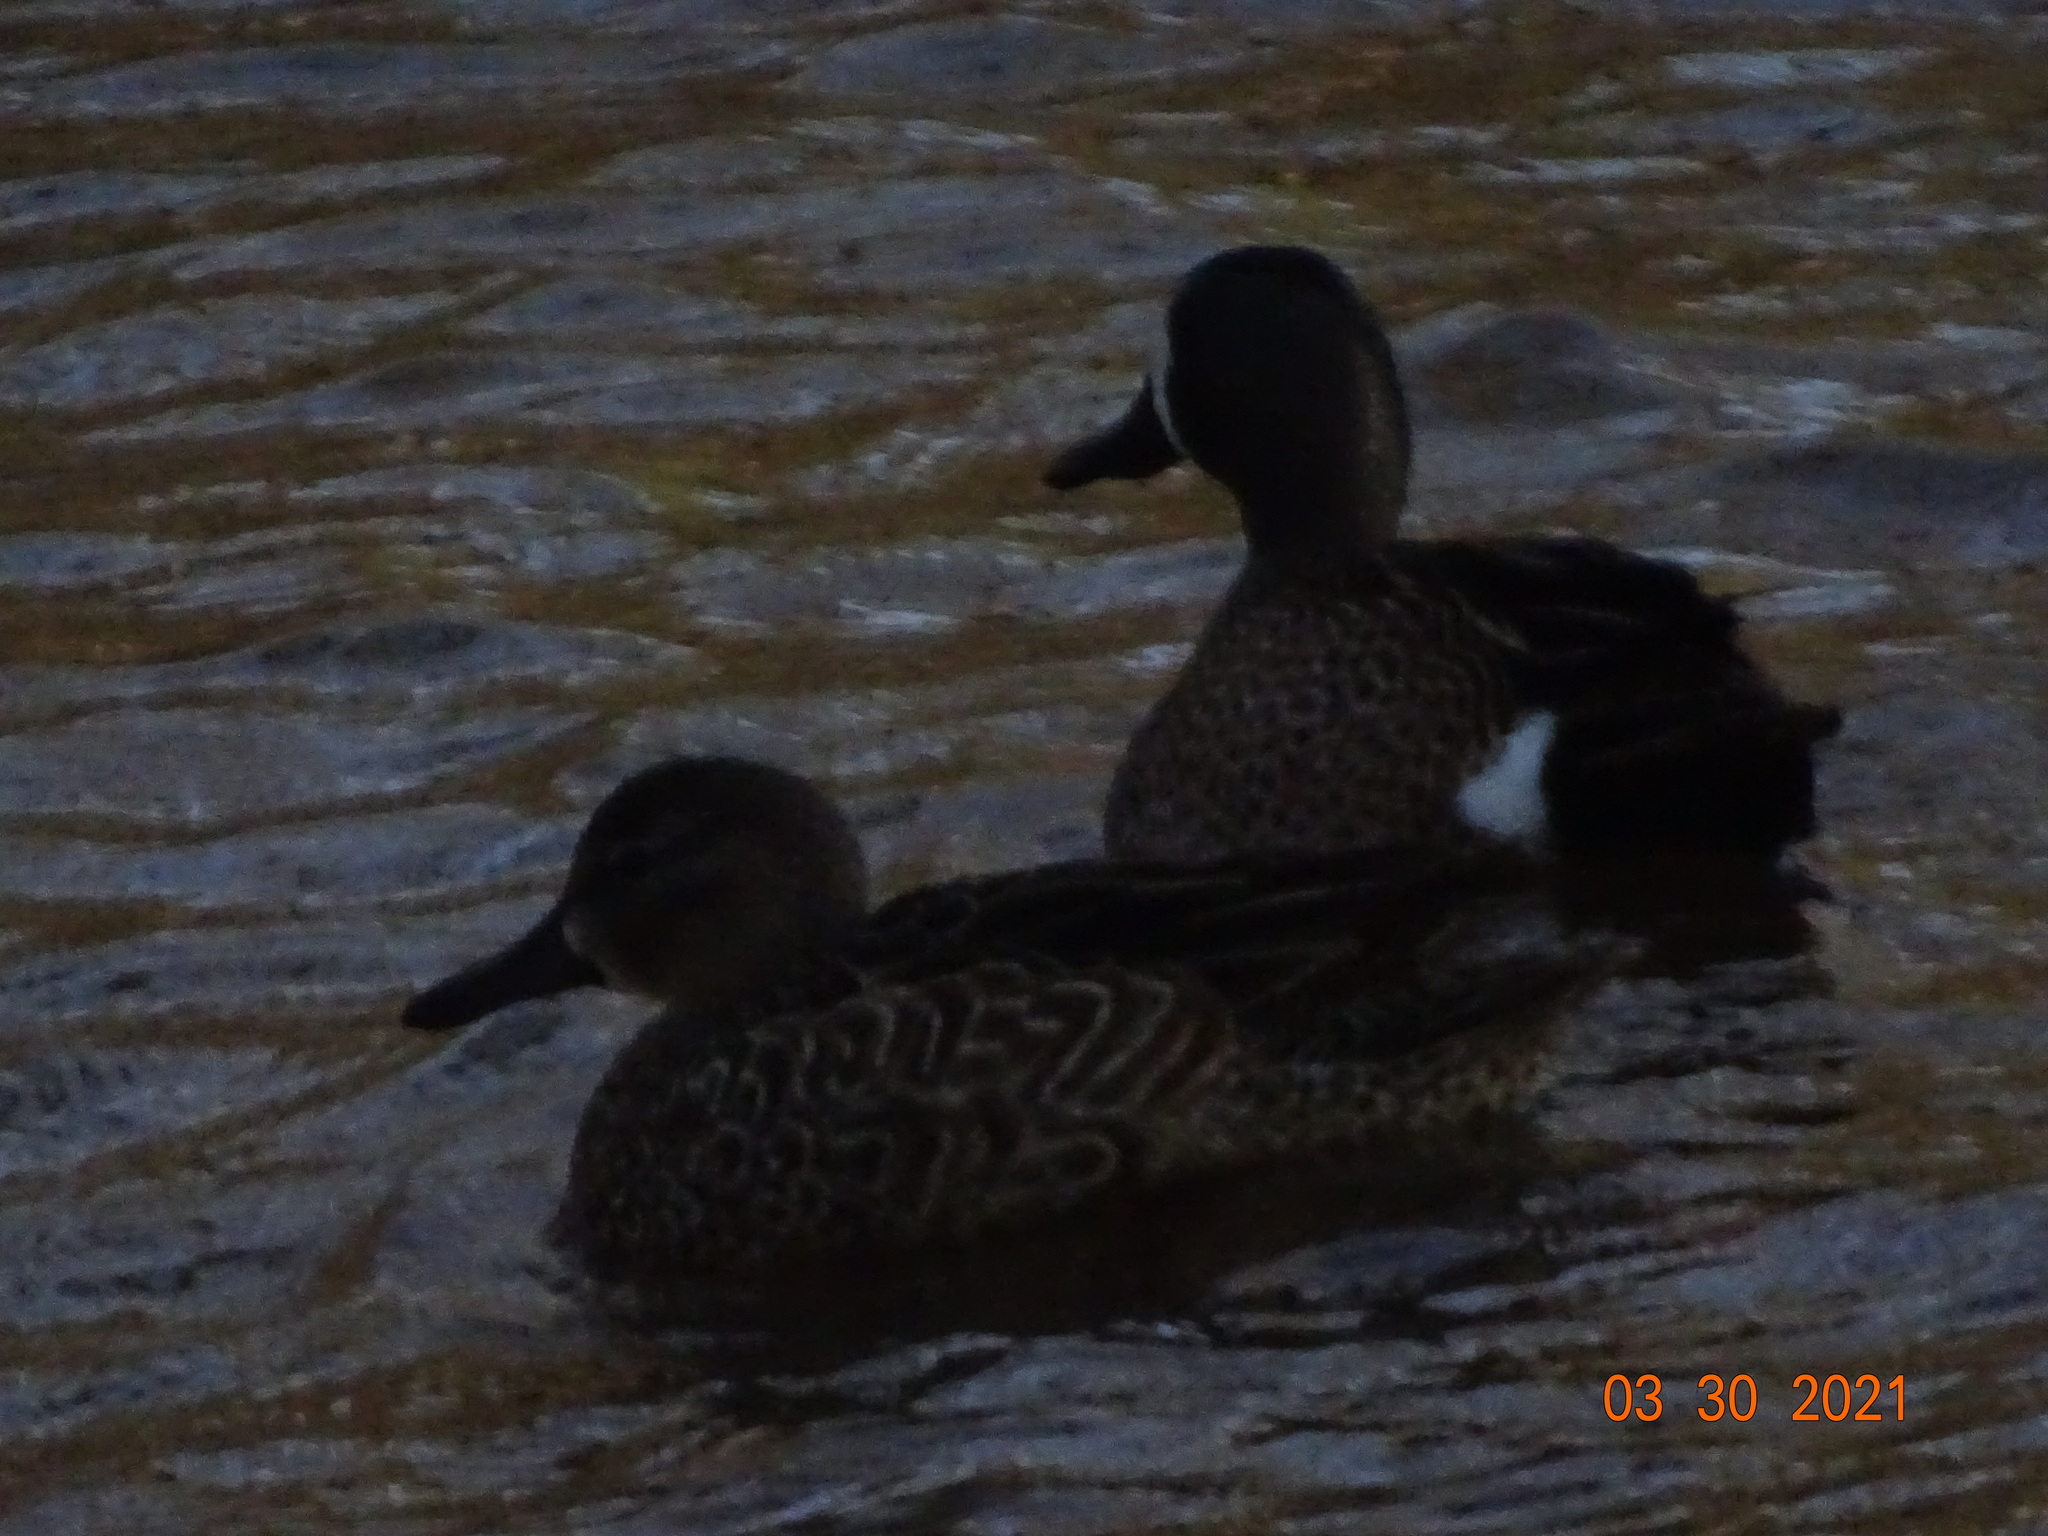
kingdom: Animalia
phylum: Chordata
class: Aves
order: Anseriformes
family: Anatidae
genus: Spatula
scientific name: Spatula discors
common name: Blue-winged teal
